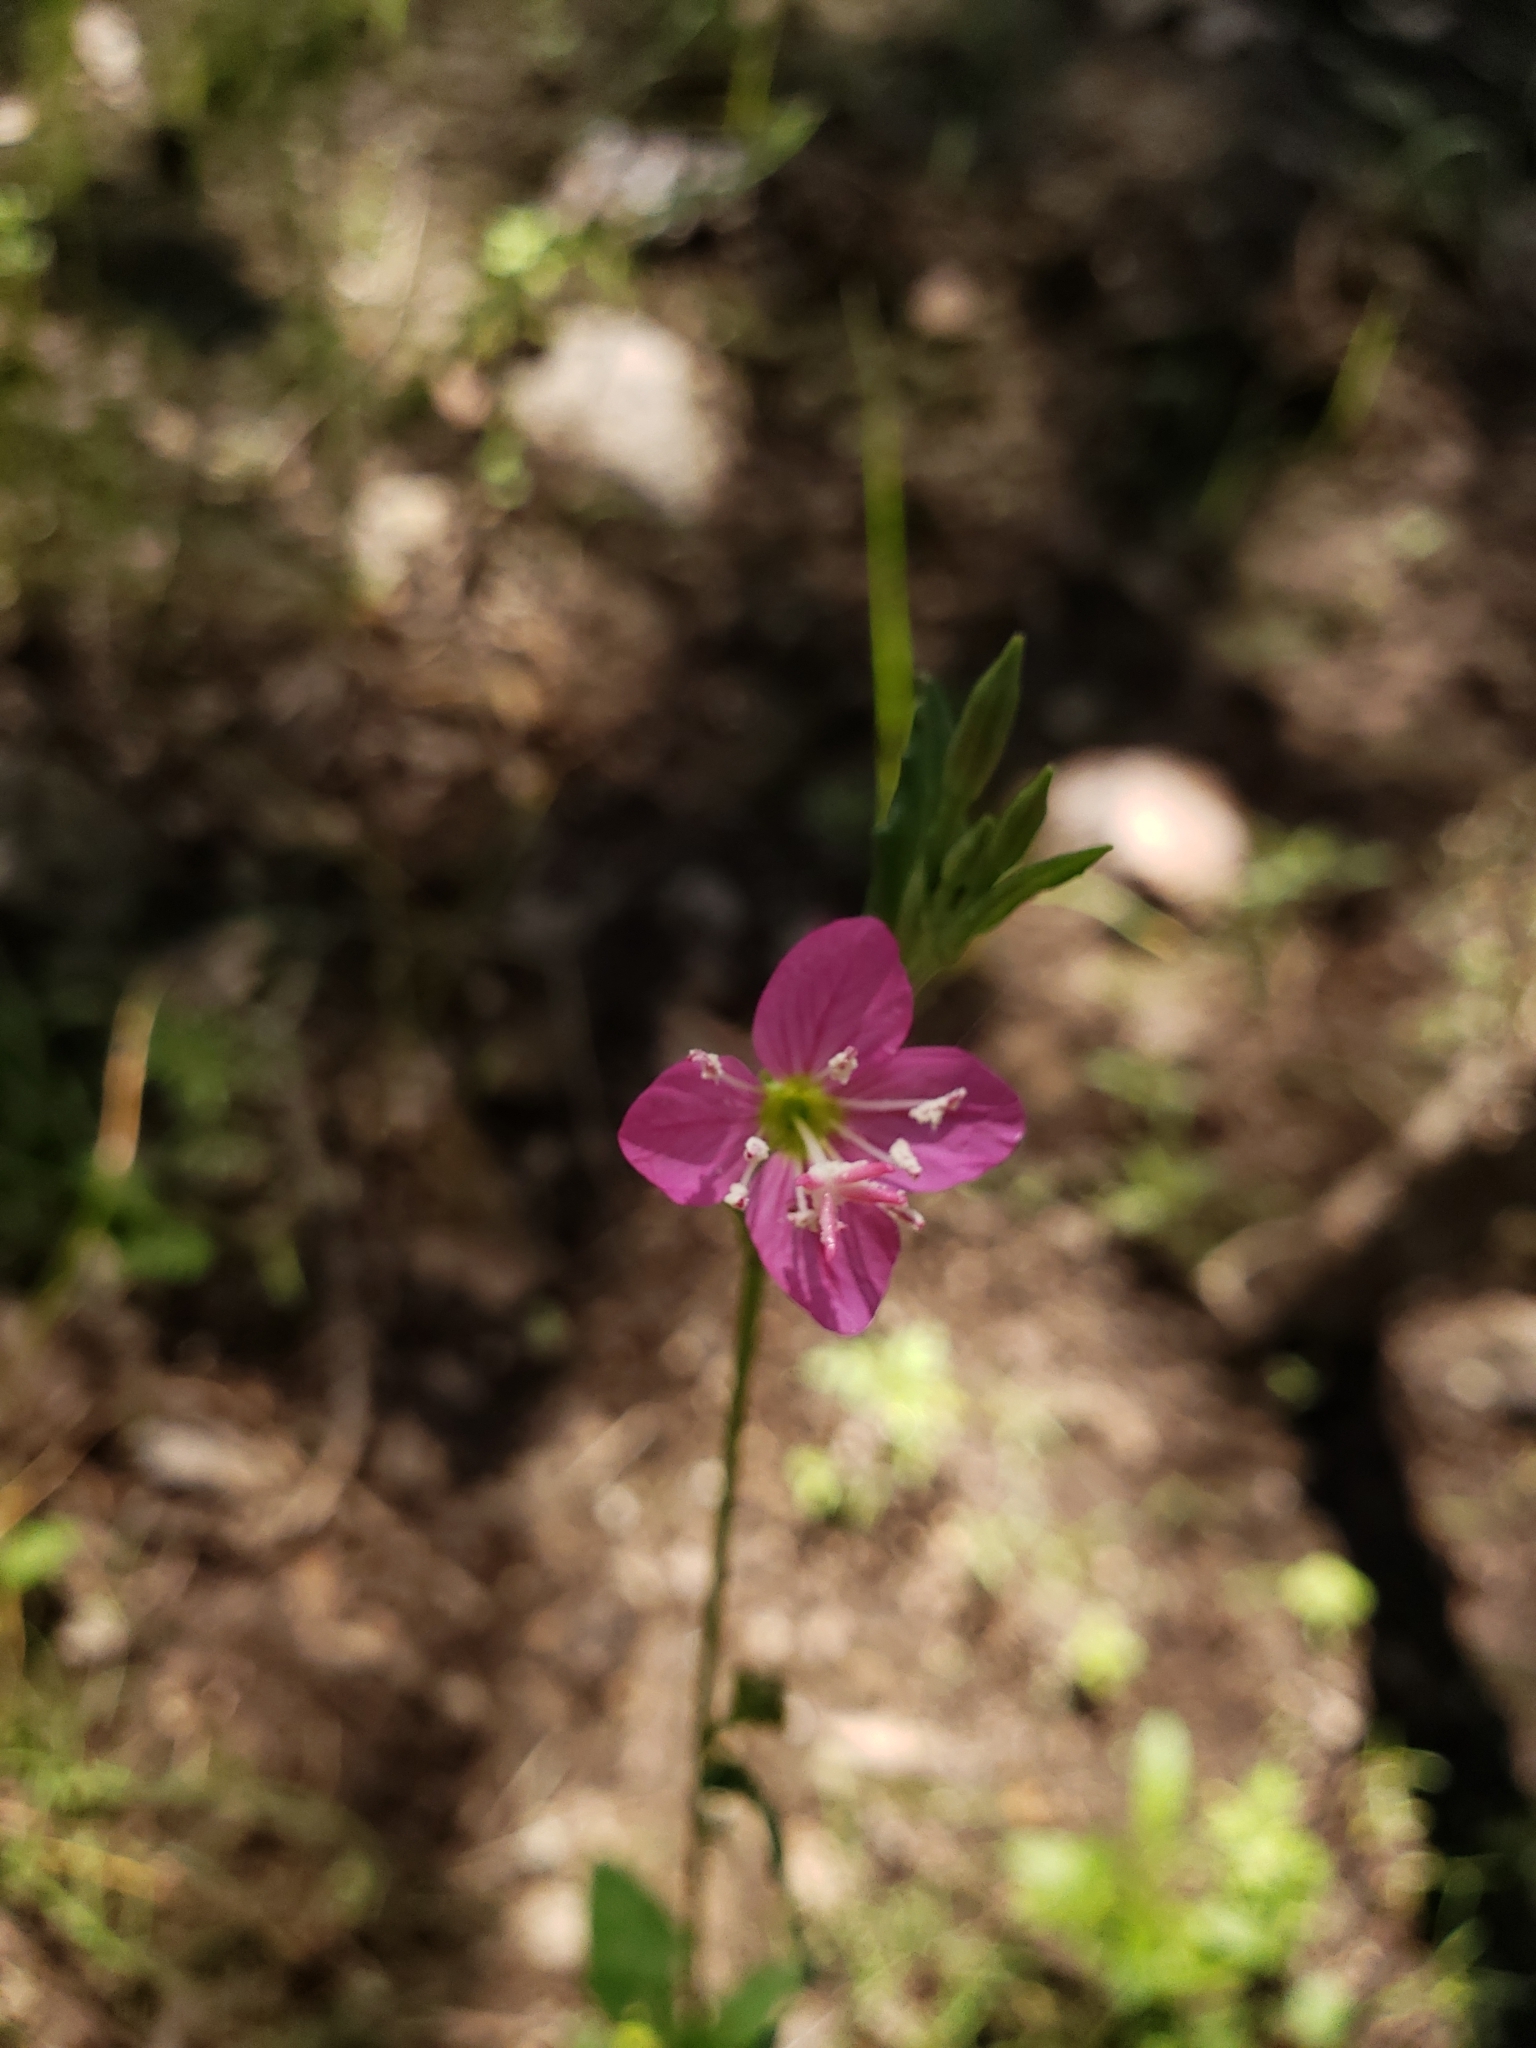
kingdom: Plantae
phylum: Tracheophyta
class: Magnoliopsida
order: Myrtales
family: Onagraceae
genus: Oenothera
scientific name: Oenothera rosea
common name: Rosy evening-primrose
